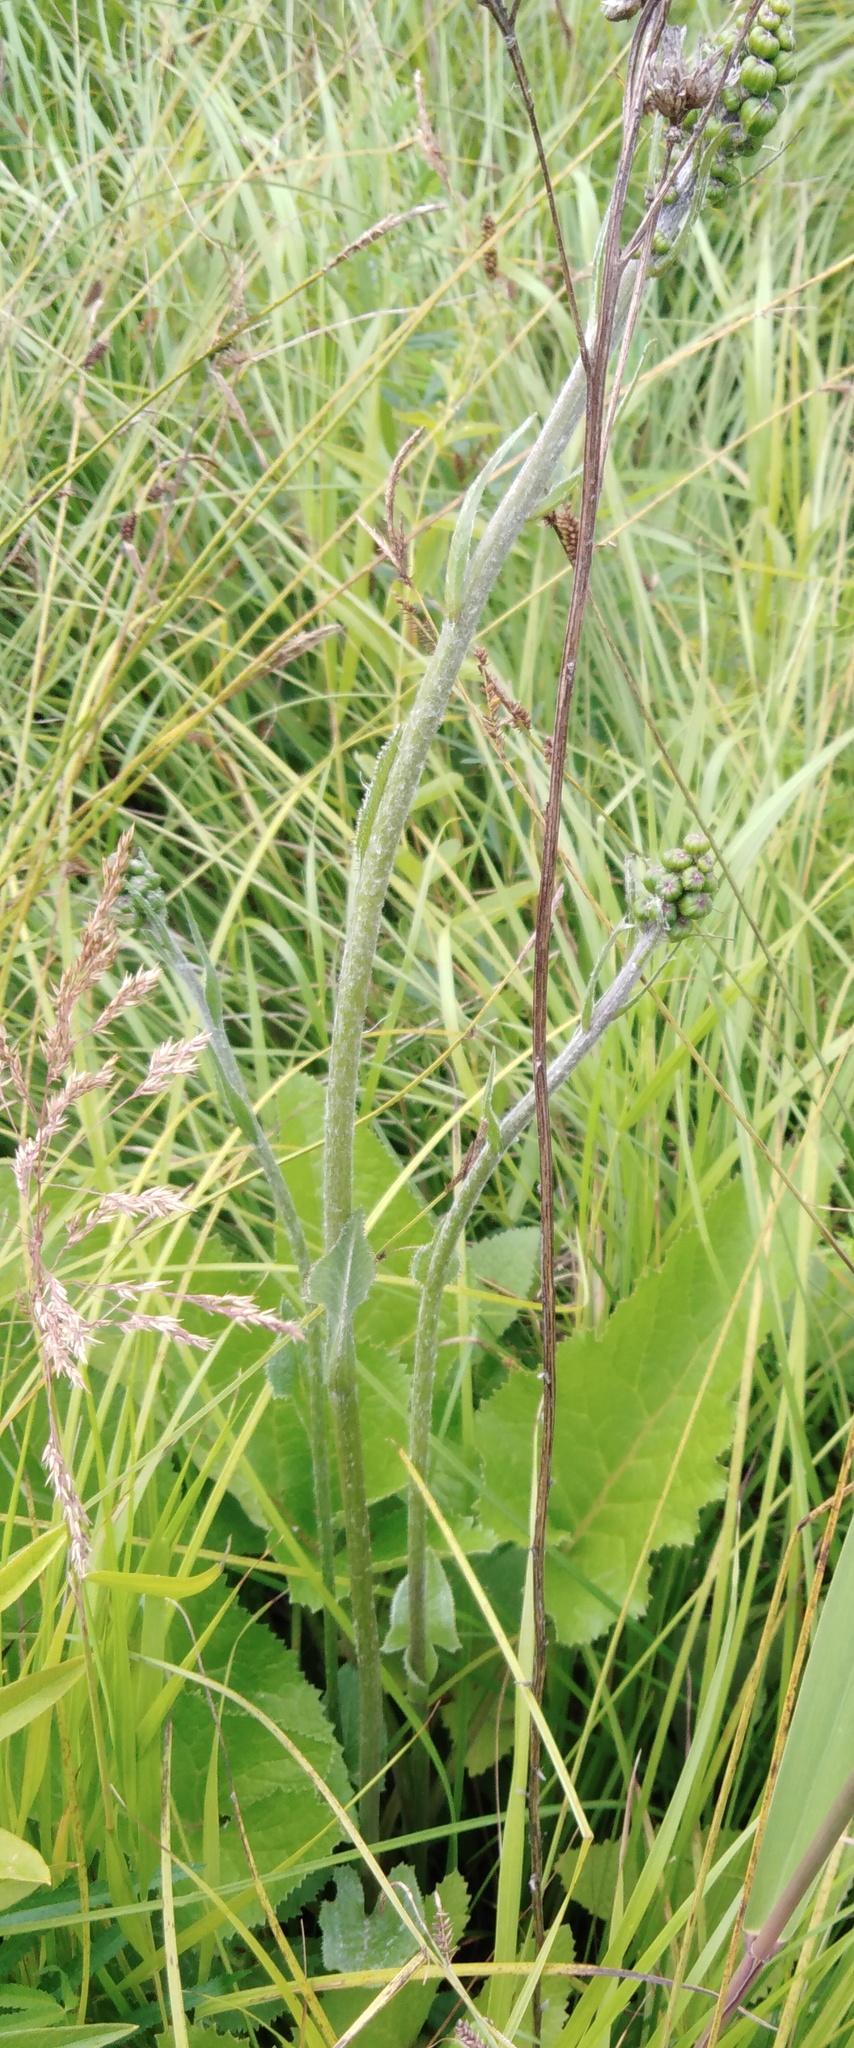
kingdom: Plantae
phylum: Tracheophyta
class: Magnoliopsida
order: Asterales
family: Asteraceae
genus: Ligularia
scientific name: Ligularia jaluensis
